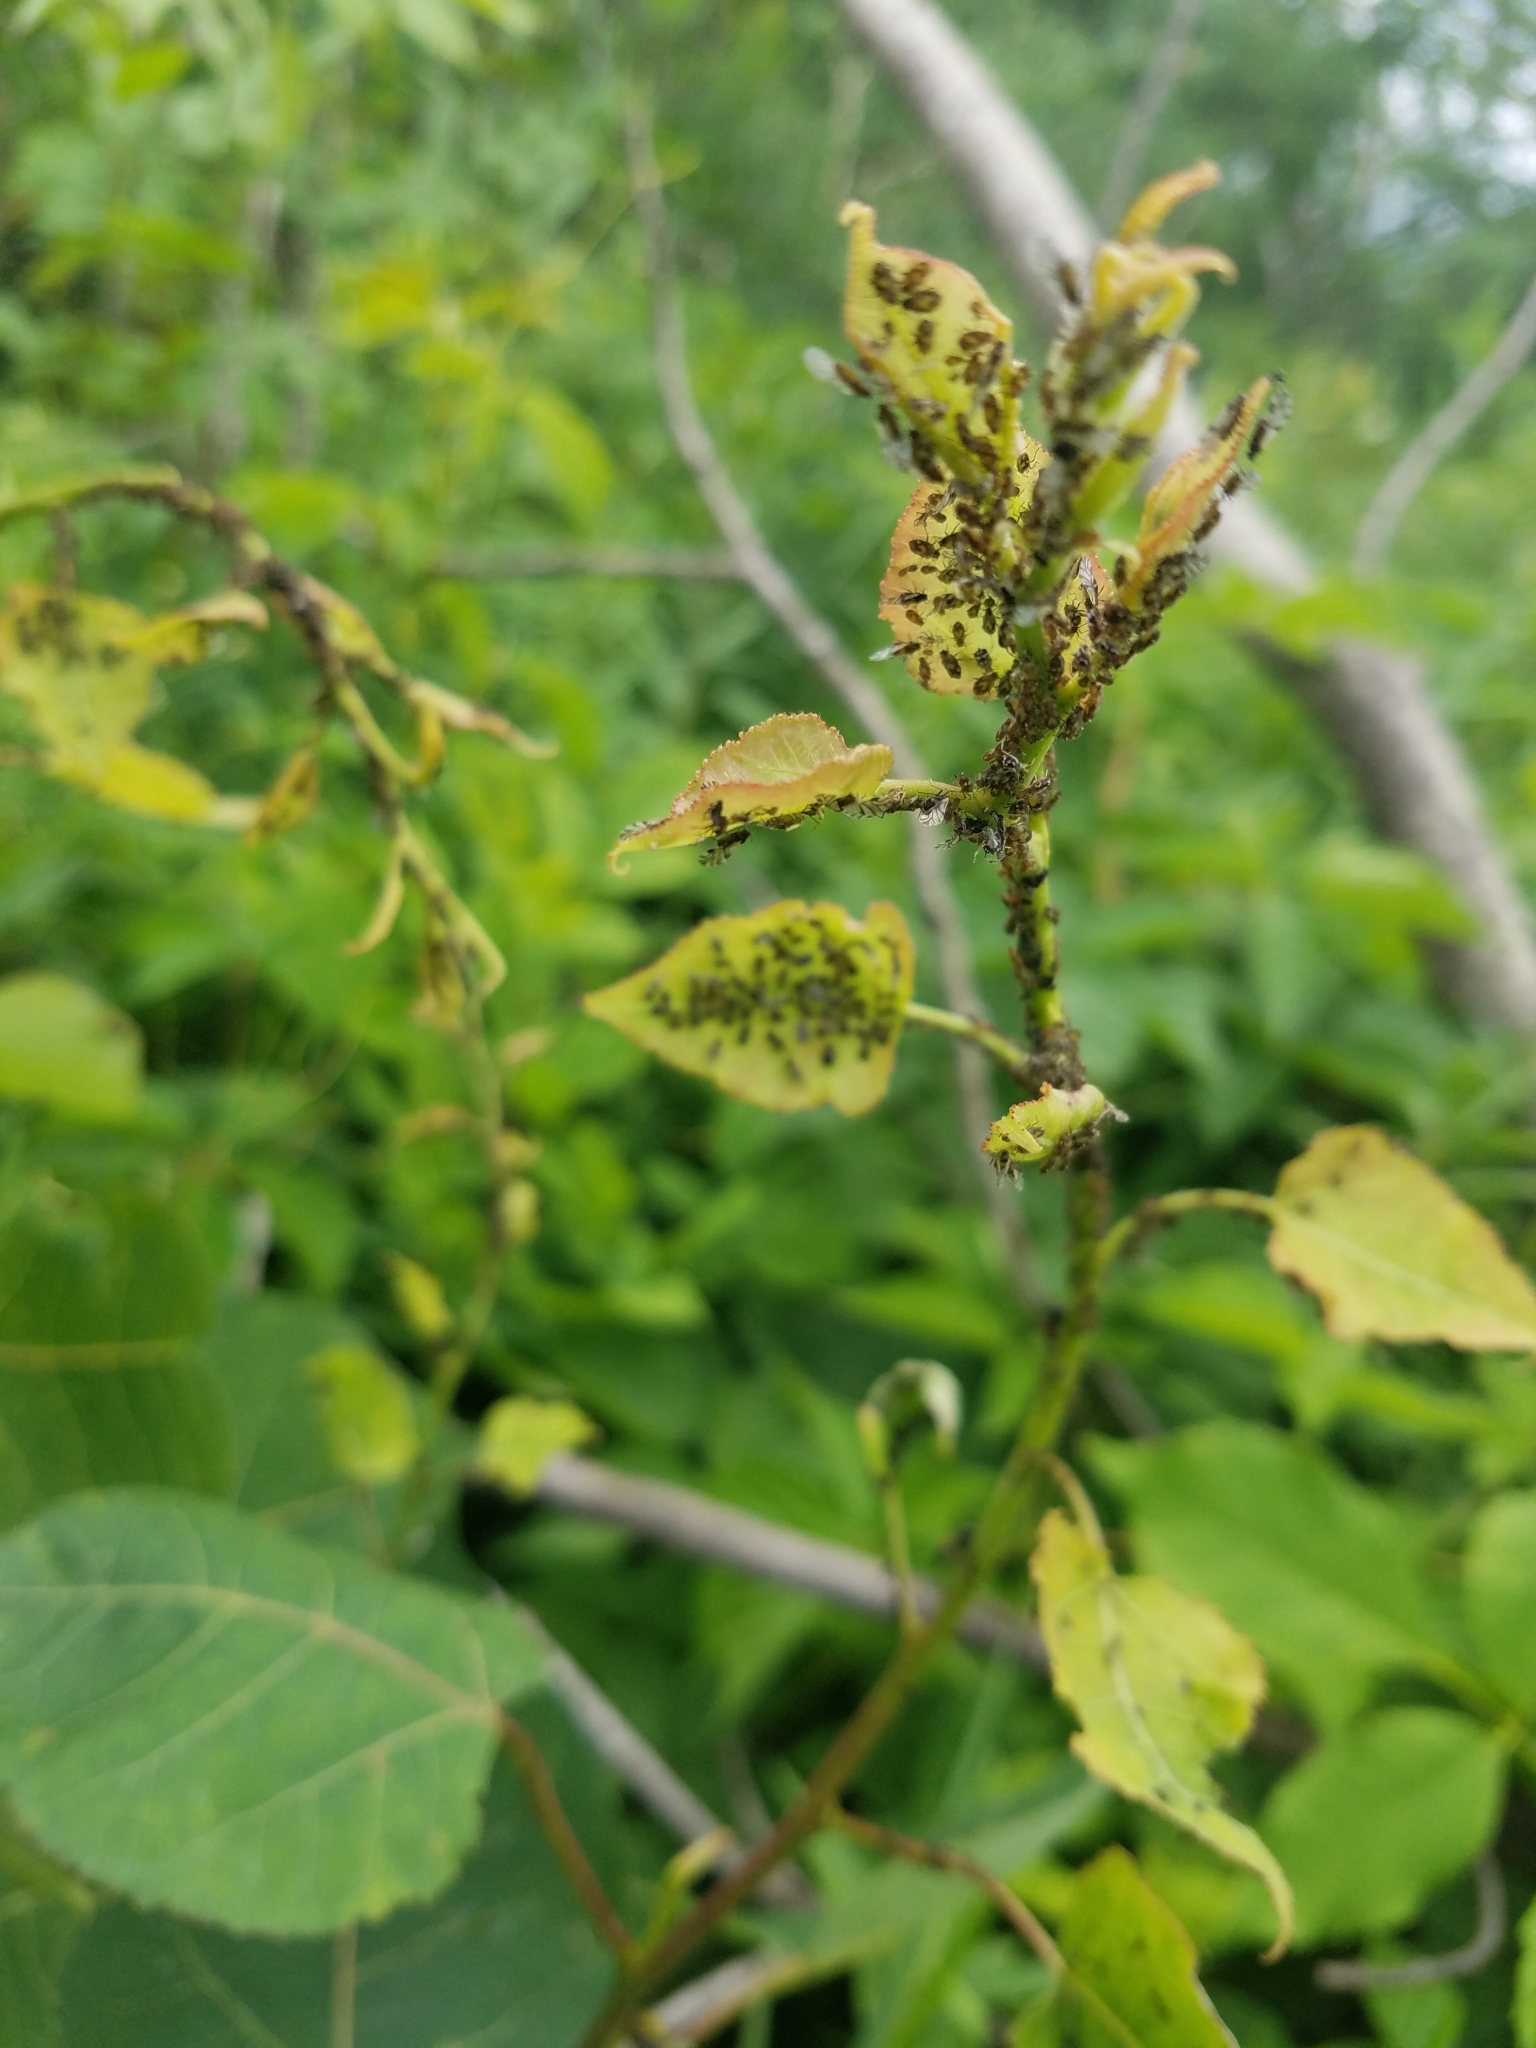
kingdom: Animalia
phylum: Arthropoda
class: Insecta
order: Hemiptera
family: Aphididae
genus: Chaitophorus
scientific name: Chaitophorus populicola
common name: Smokywinged poplar aphid
